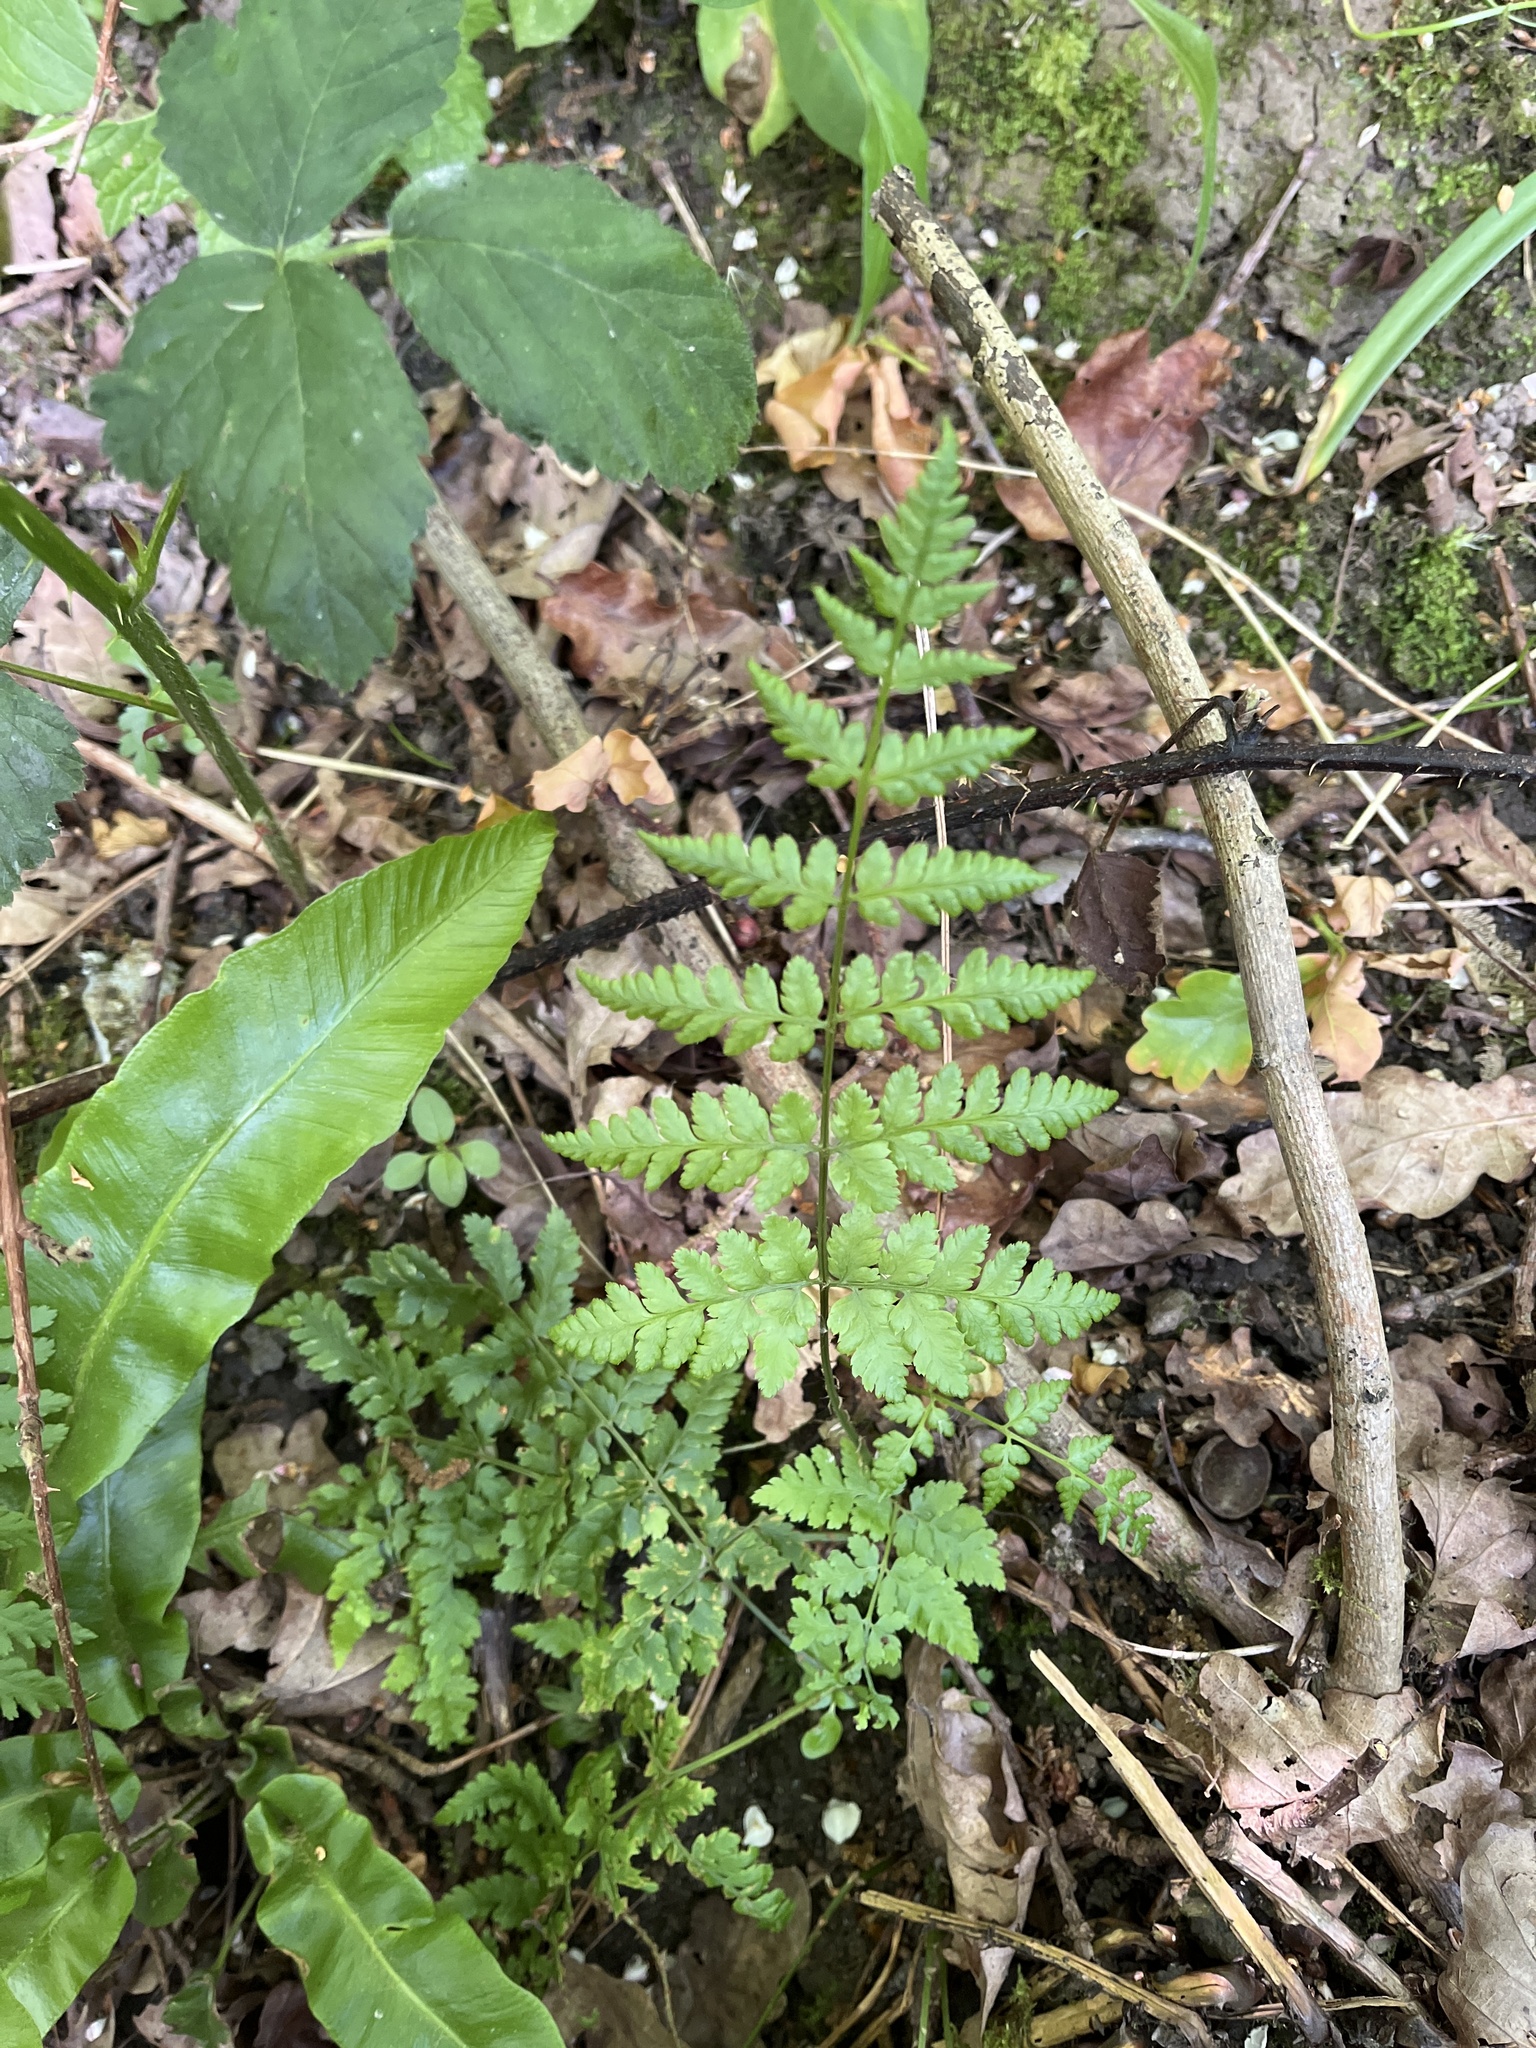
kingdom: Plantae
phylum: Tracheophyta
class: Polypodiopsida
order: Polypodiales
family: Dryopteridaceae
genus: Dryopteris
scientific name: Dryopteris dilatata
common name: Broad buckler-fern
